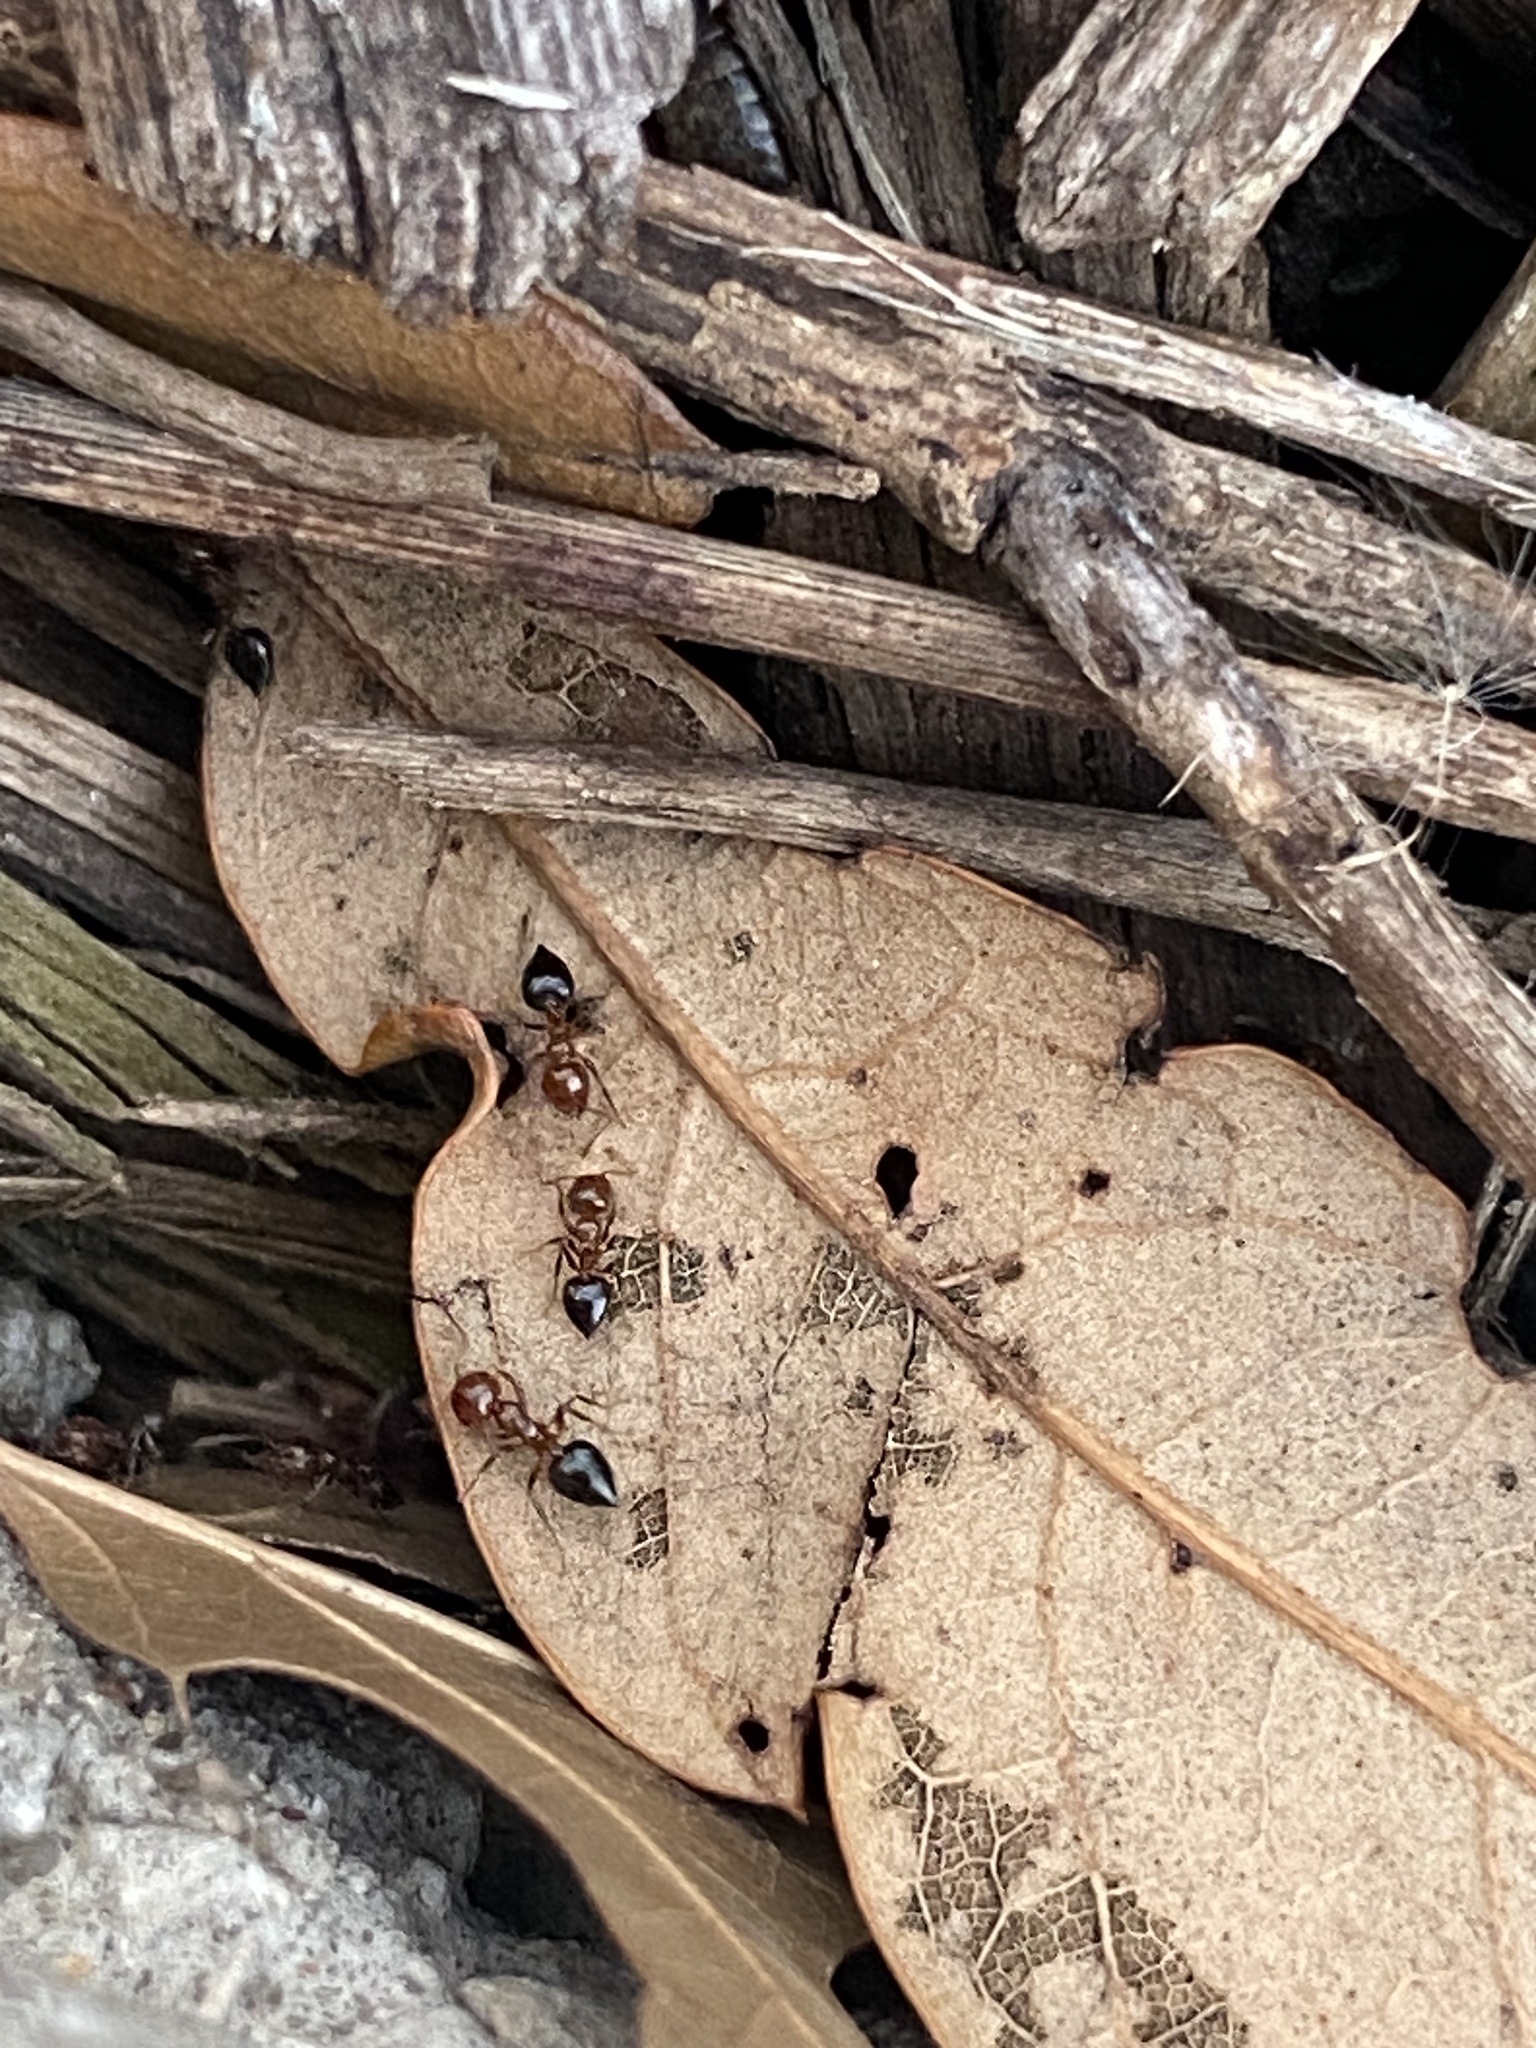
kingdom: Animalia
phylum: Arthropoda
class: Insecta
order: Hymenoptera
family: Formicidae
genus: Crematogaster
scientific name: Crematogaster laeviuscula
